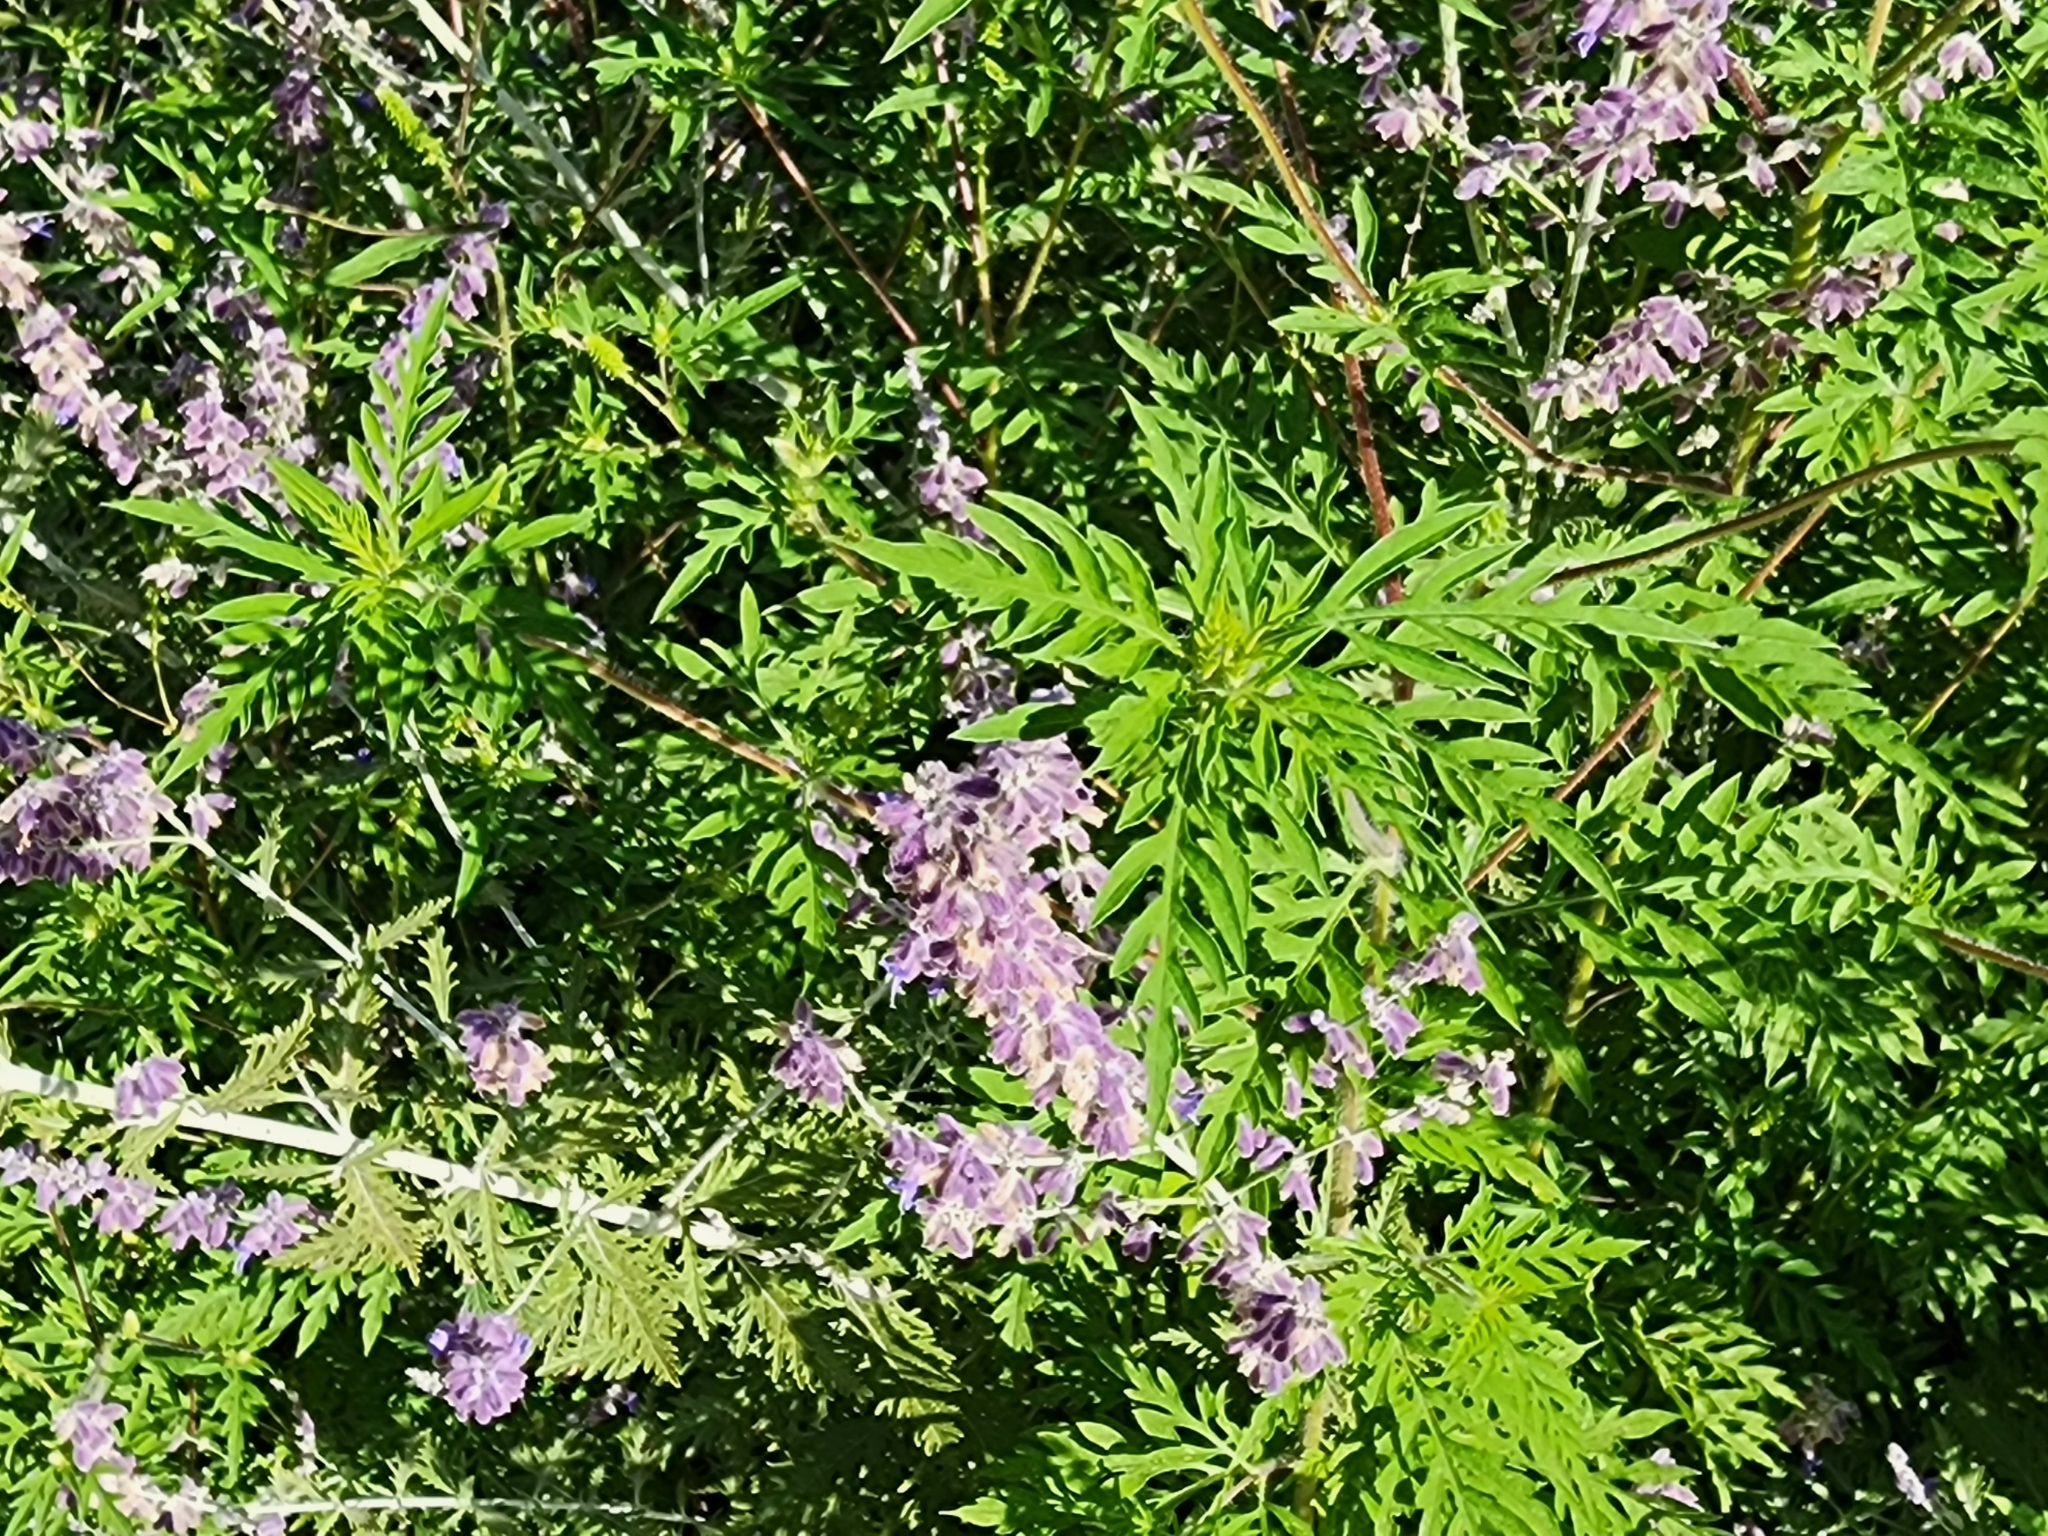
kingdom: Plantae
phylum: Tracheophyta
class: Magnoliopsida
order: Asterales
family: Asteraceae
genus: Ambrosia
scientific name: Ambrosia artemisiifolia
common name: Annual ragweed
